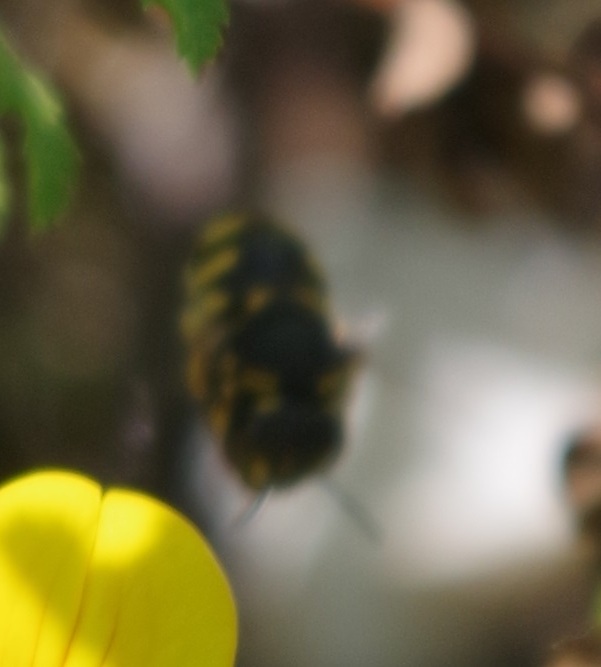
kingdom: Animalia
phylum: Arthropoda
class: Insecta
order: Hymenoptera
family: Megachilidae
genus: Anthidiellum
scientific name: Anthidiellum strigatum
